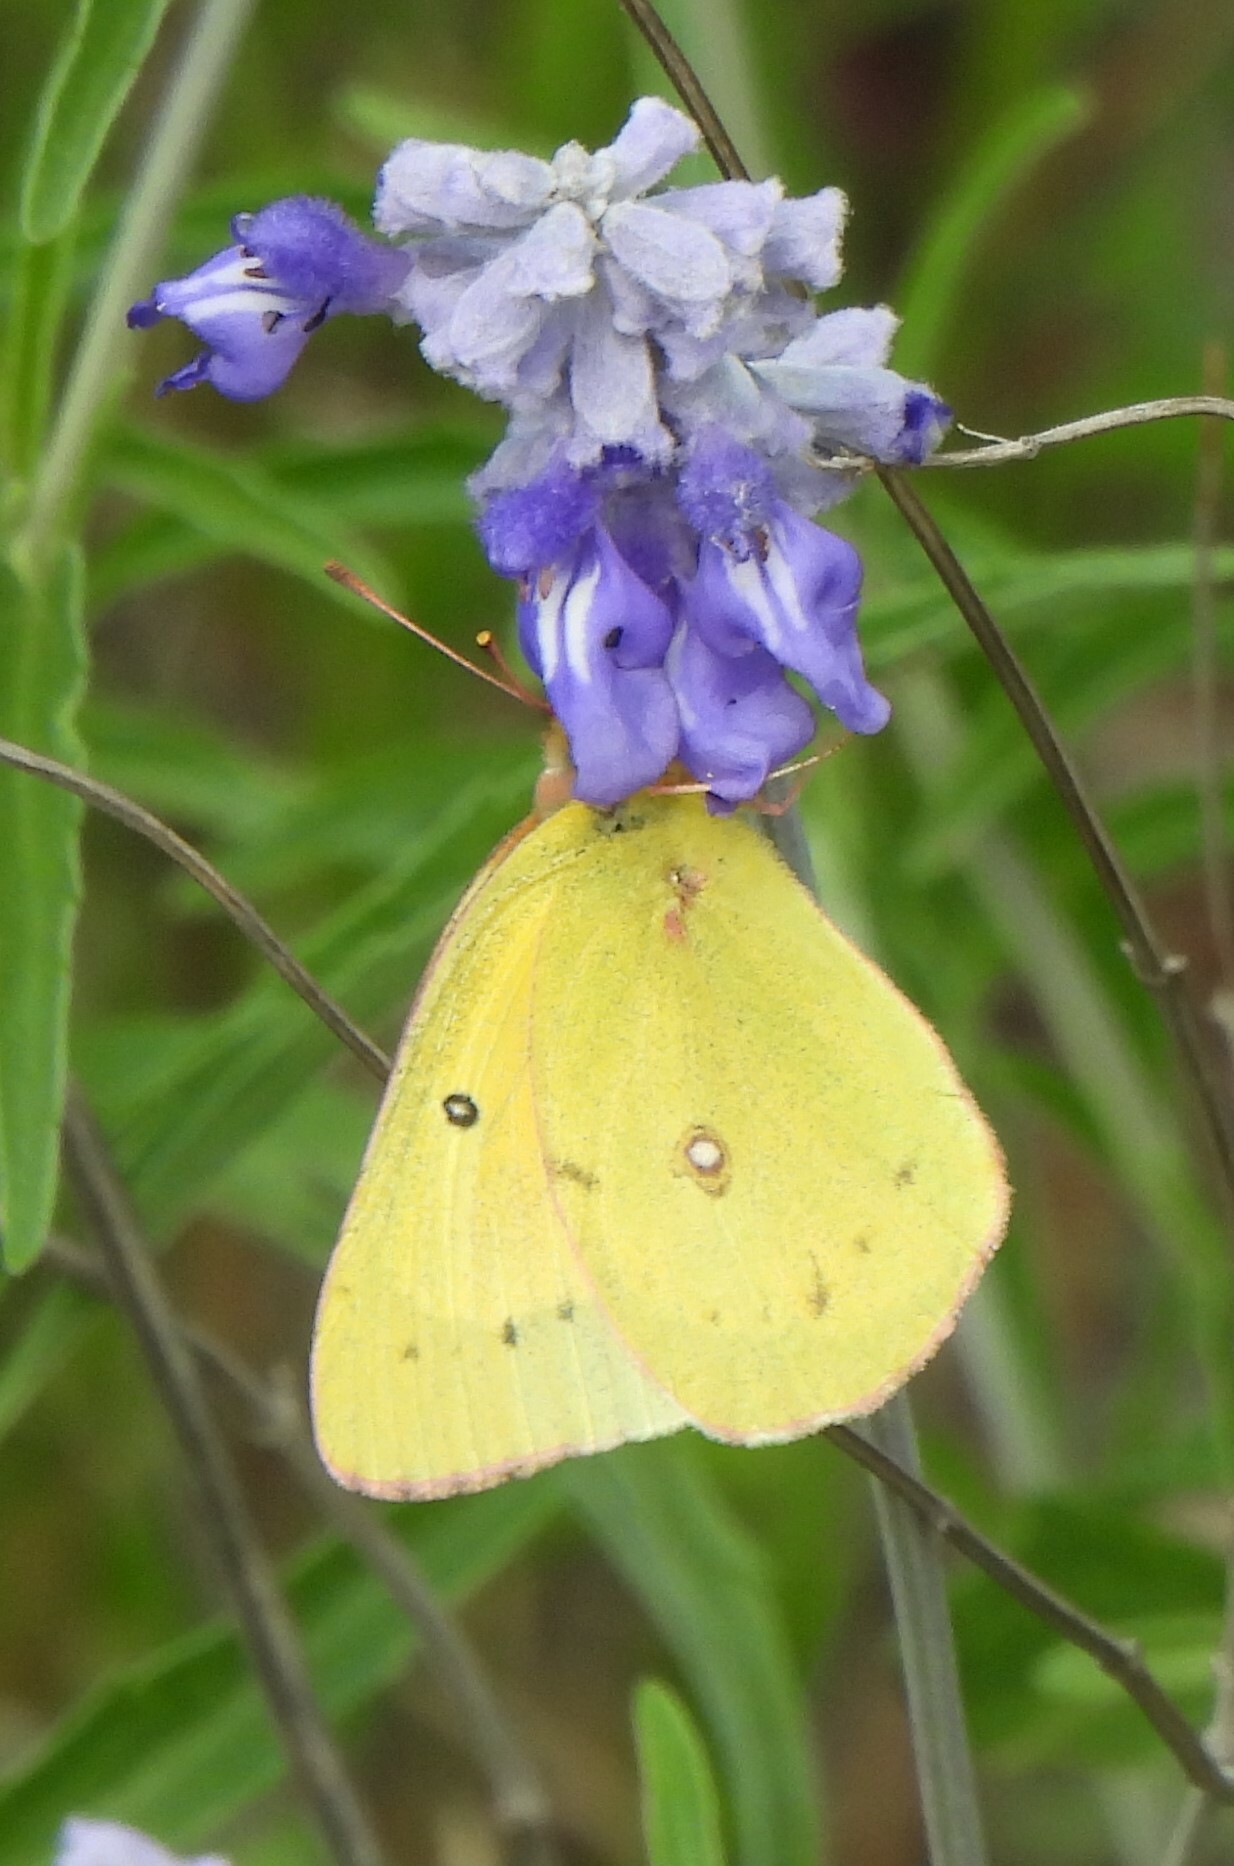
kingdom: Animalia
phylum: Arthropoda
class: Insecta
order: Lepidoptera
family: Pieridae
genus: Colias
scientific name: Colias eurytheme
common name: Alfalfa butterfly
